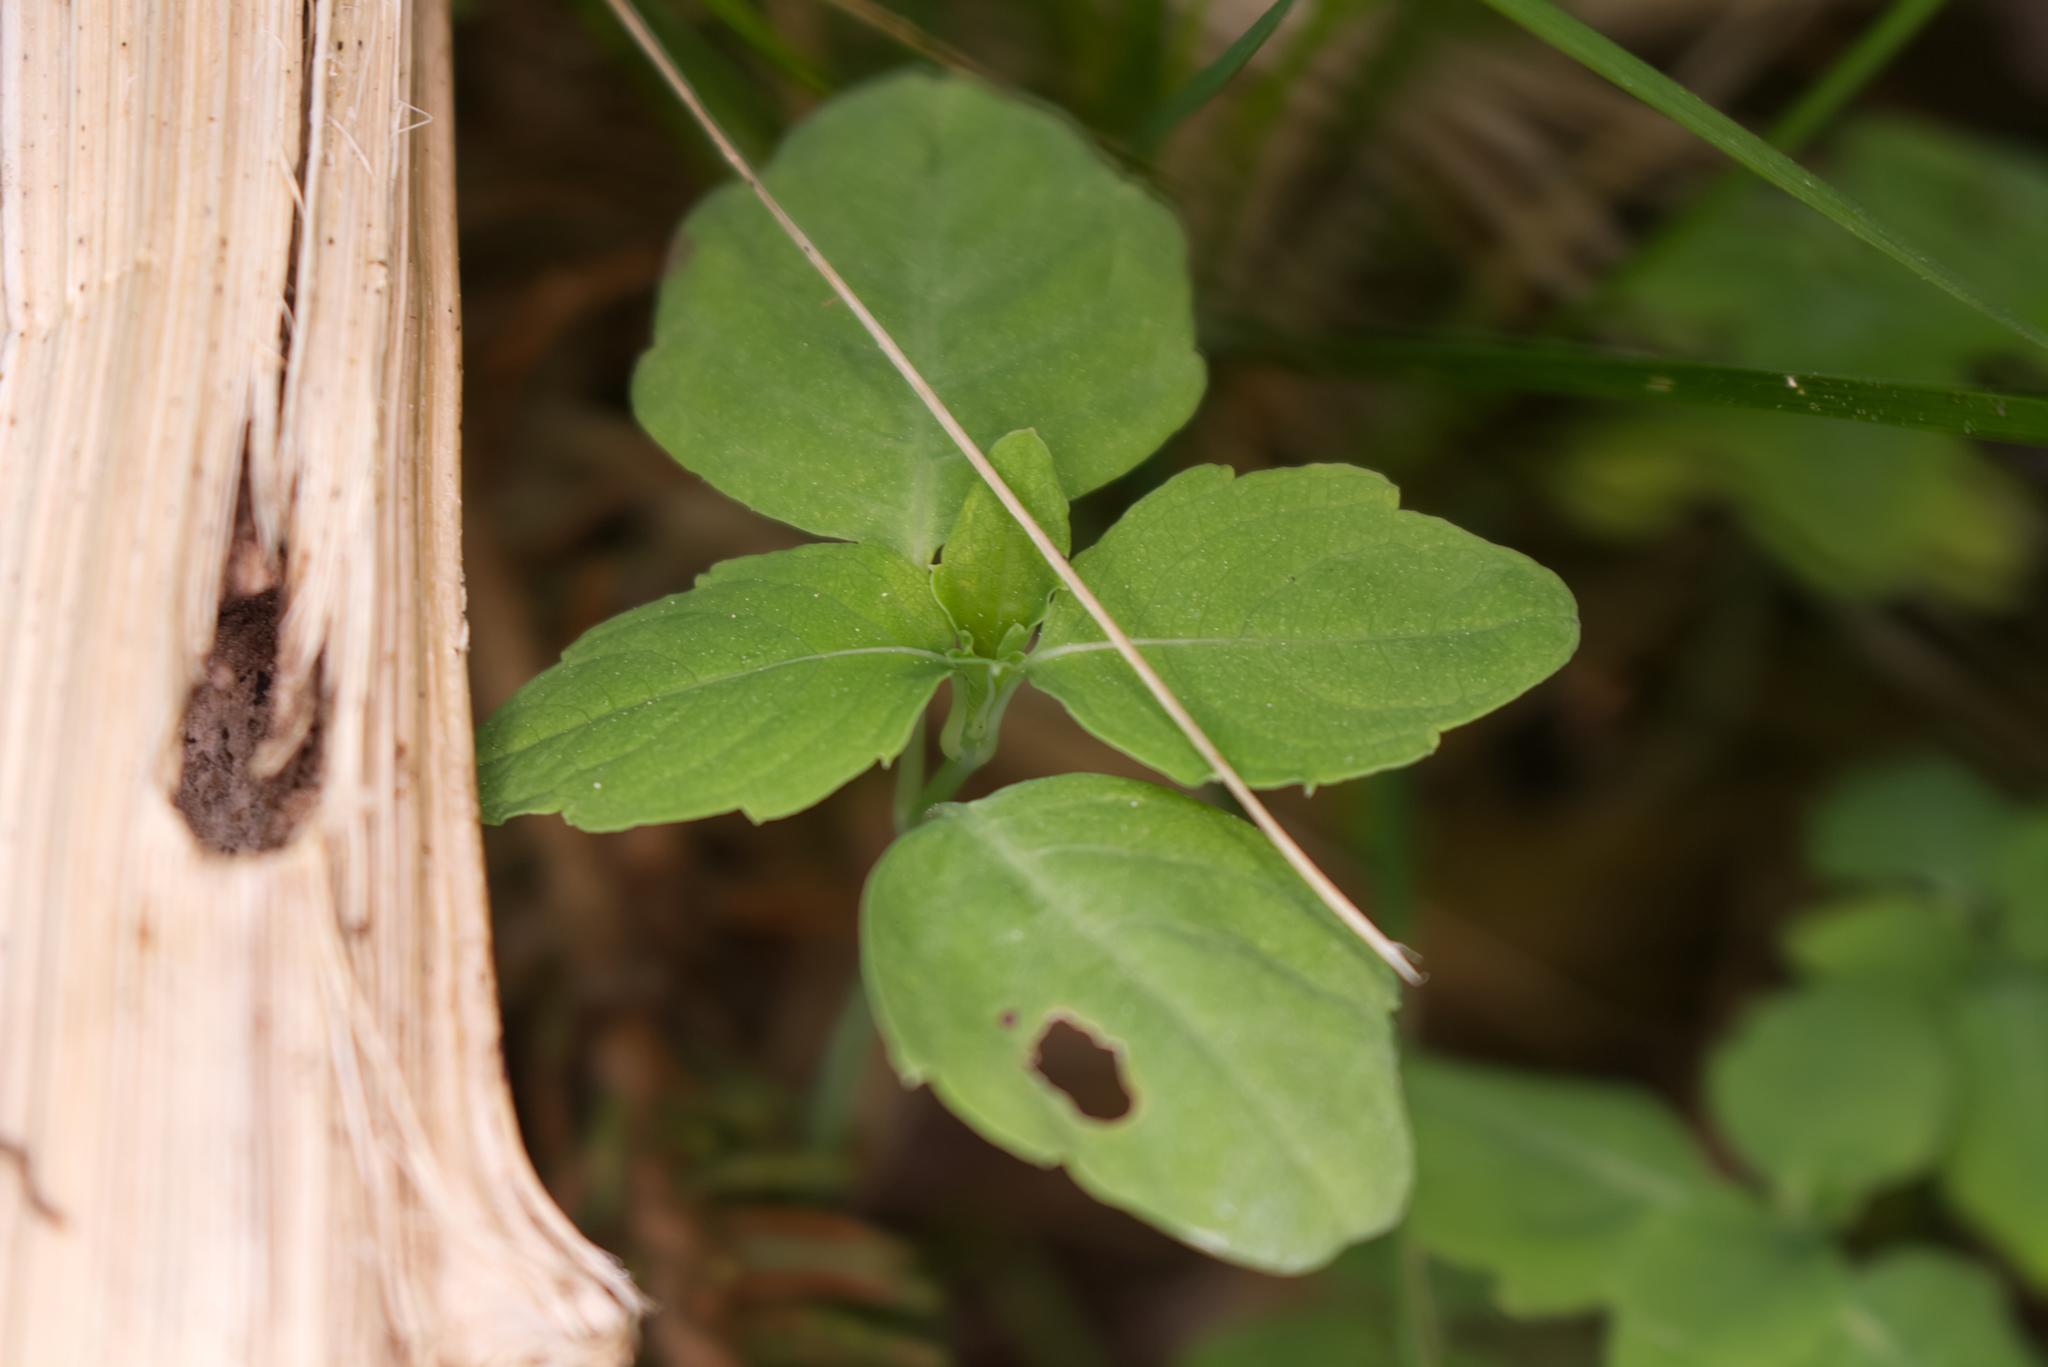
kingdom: Plantae
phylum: Tracheophyta
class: Magnoliopsida
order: Ericales
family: Balsaminaceae
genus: Impatiens
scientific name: Impatiens noli-tangere
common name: Touch-me-not balsam
